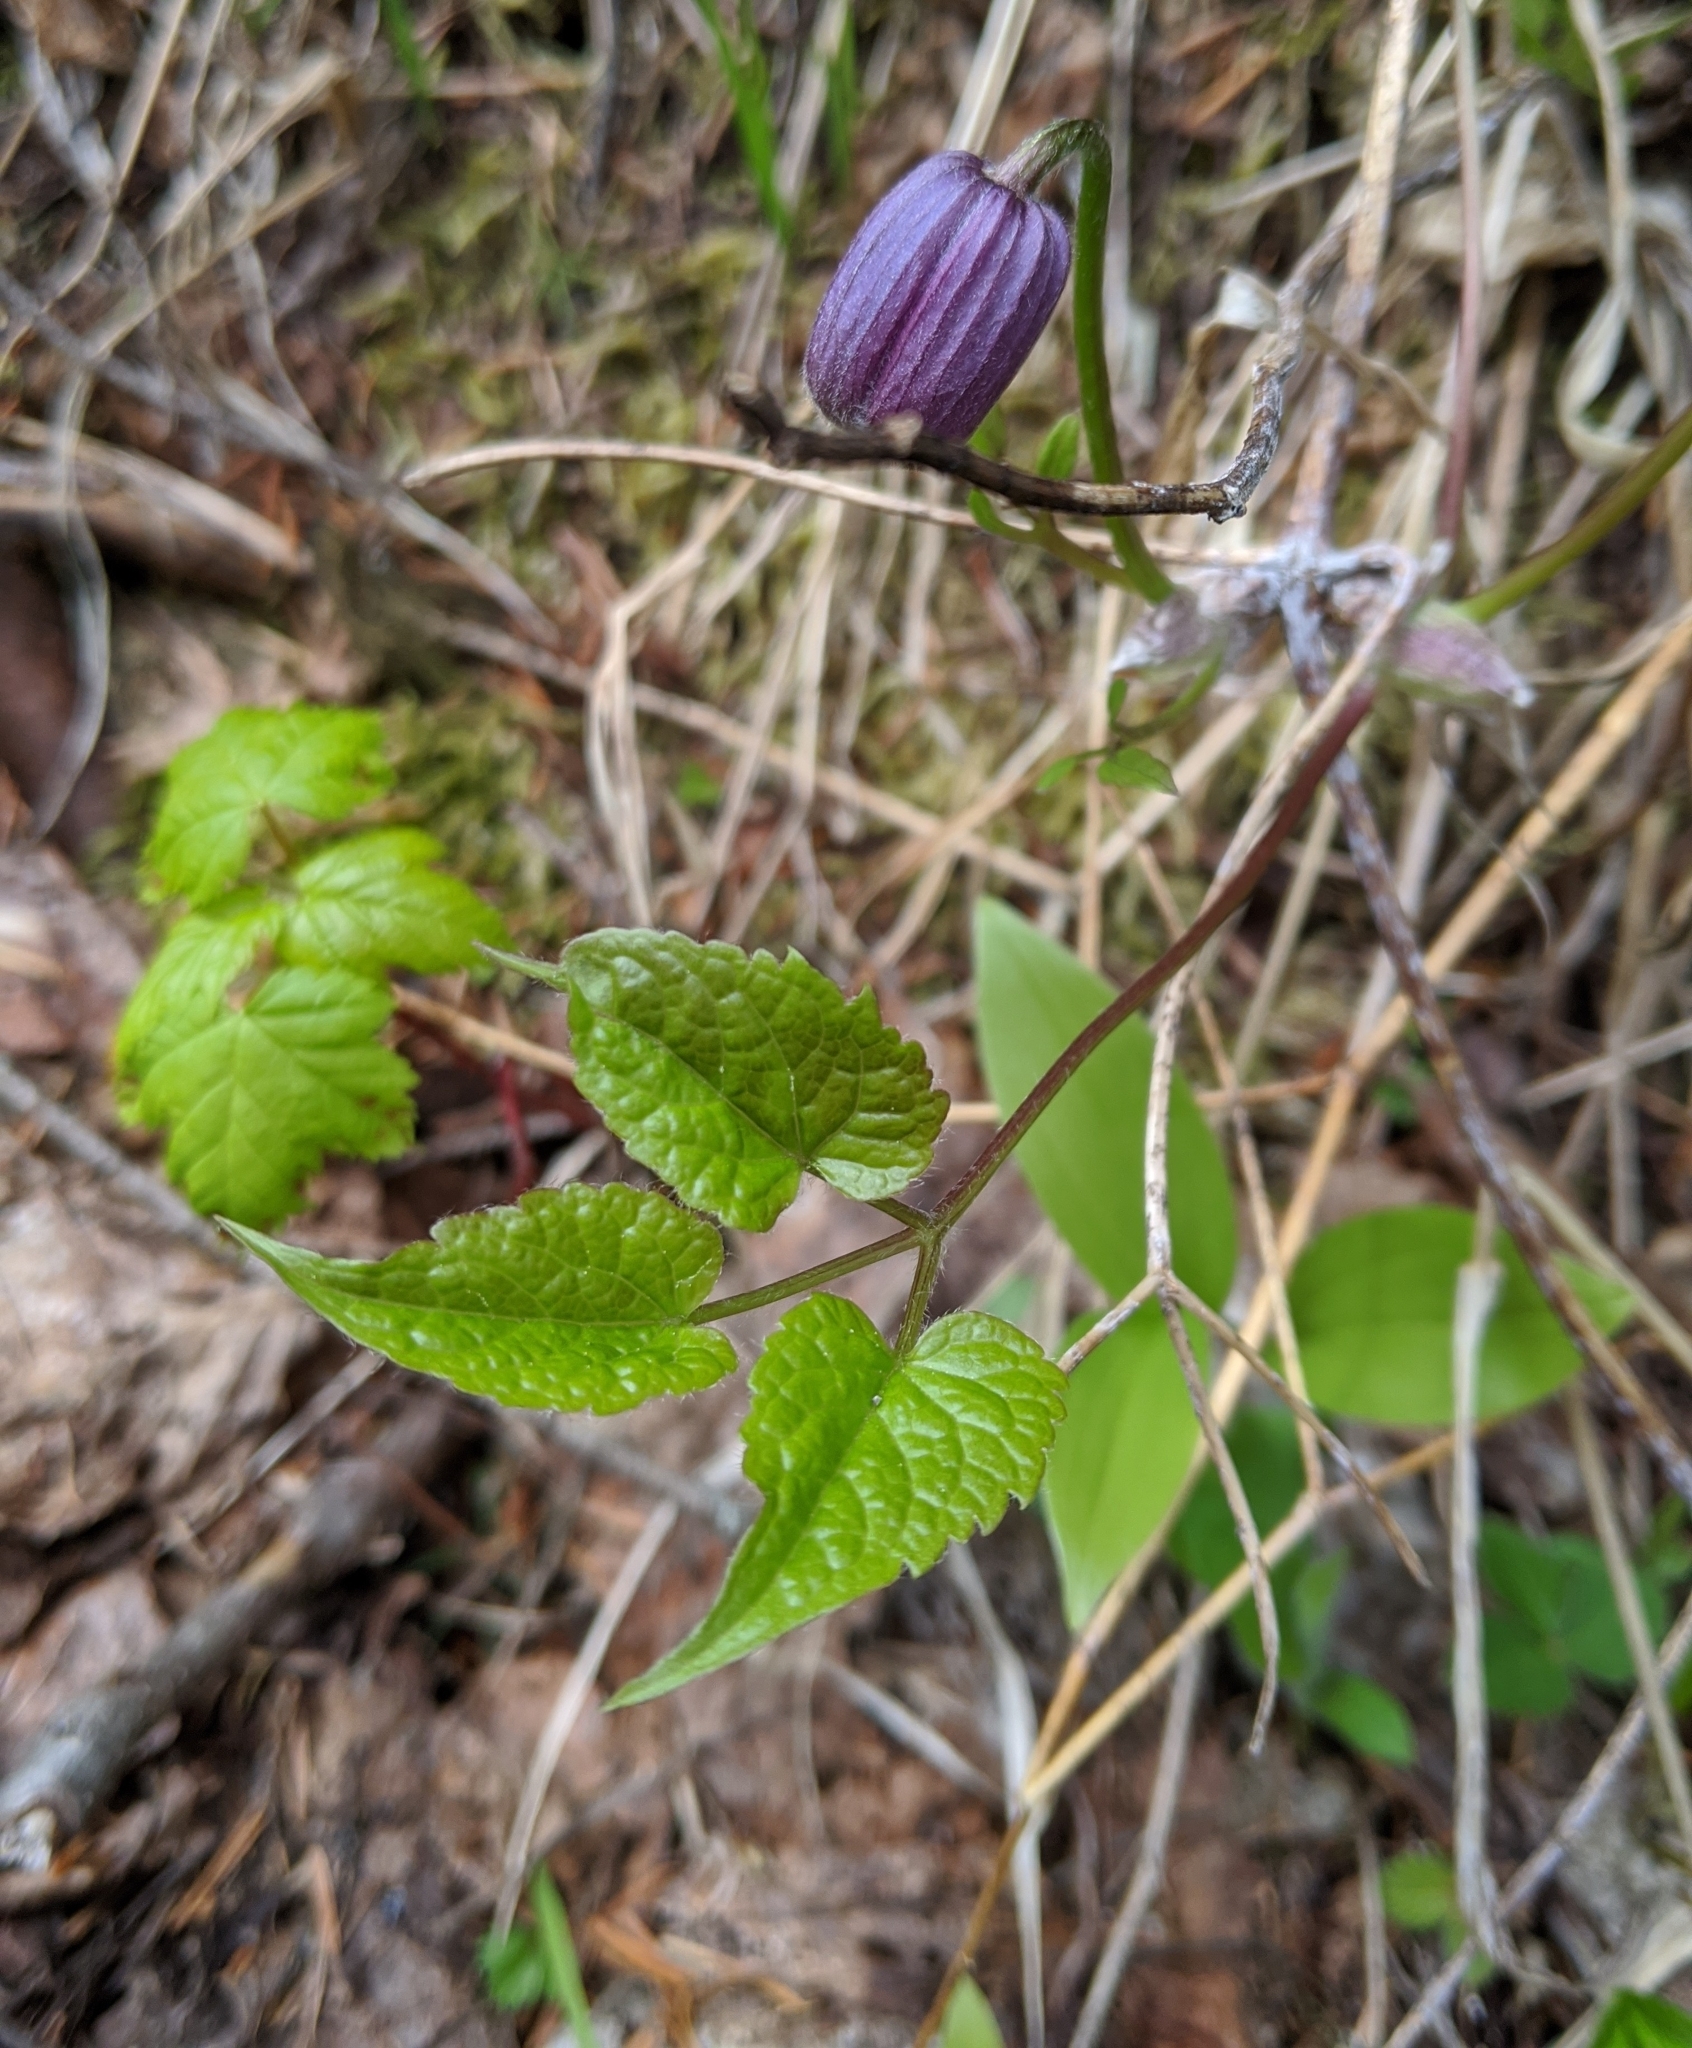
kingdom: Plantae
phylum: Tracheophyta
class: Magnoliopsida
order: Ranunculales
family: Ranunculaceae
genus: Clematis
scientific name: Clematis occidentalis
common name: Purple clematis
